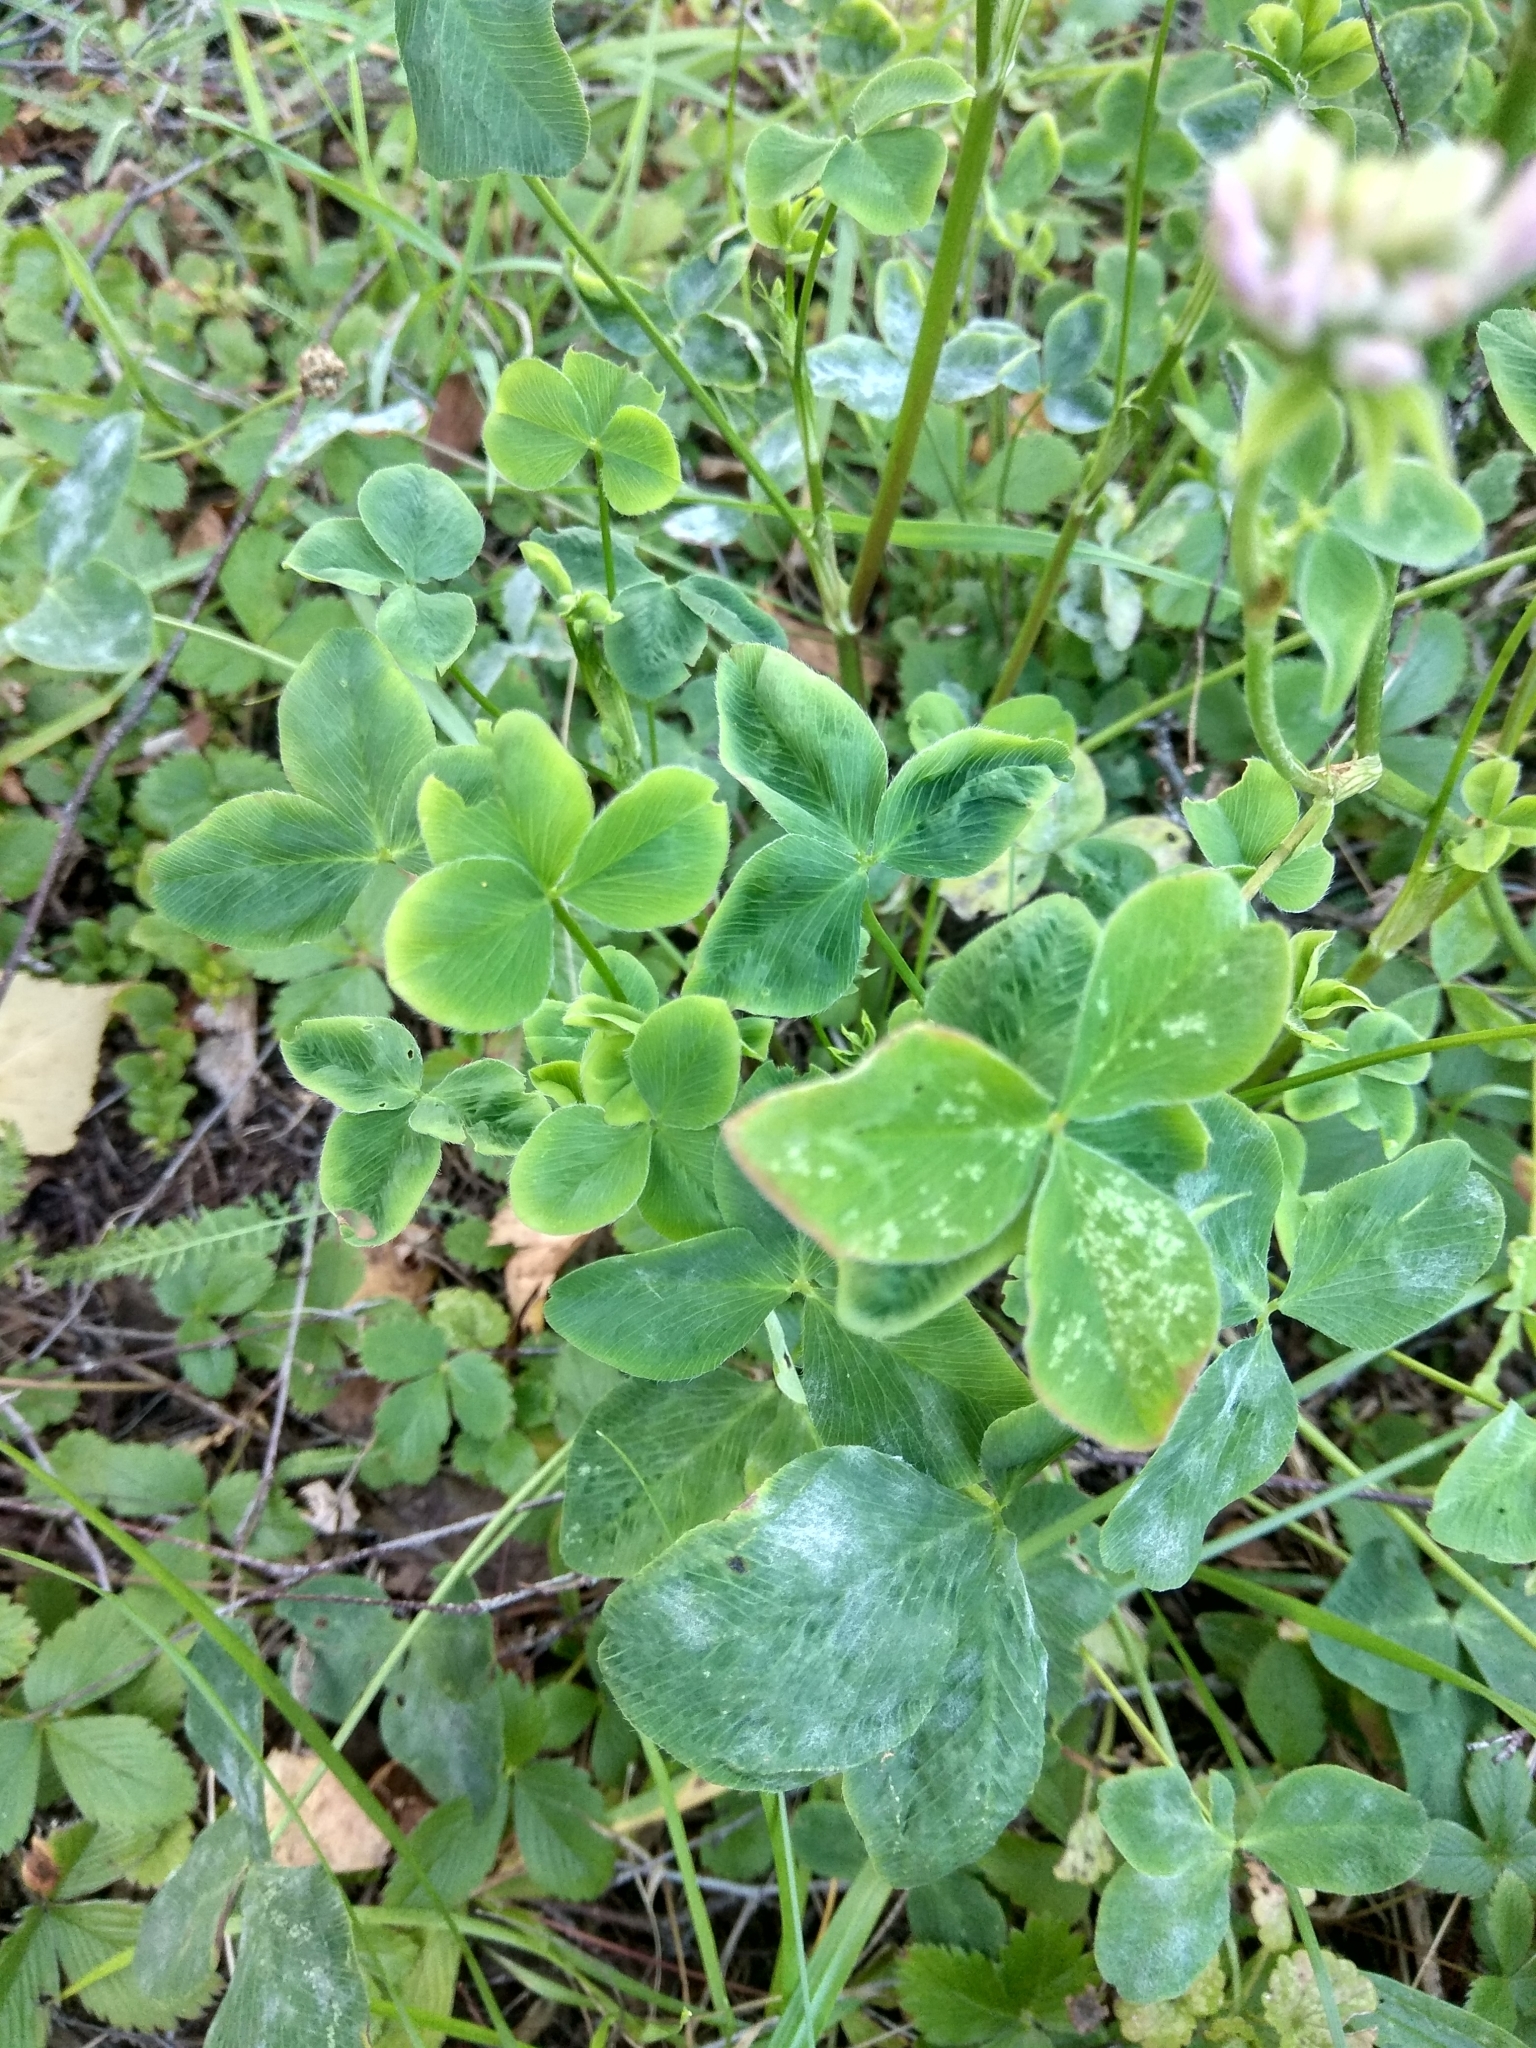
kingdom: Plantae
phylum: Tracheophyta
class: Magnoliopsida
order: Fabales
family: Fabaceae
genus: Trifolium
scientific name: Trifolium pratense
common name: Red clover
